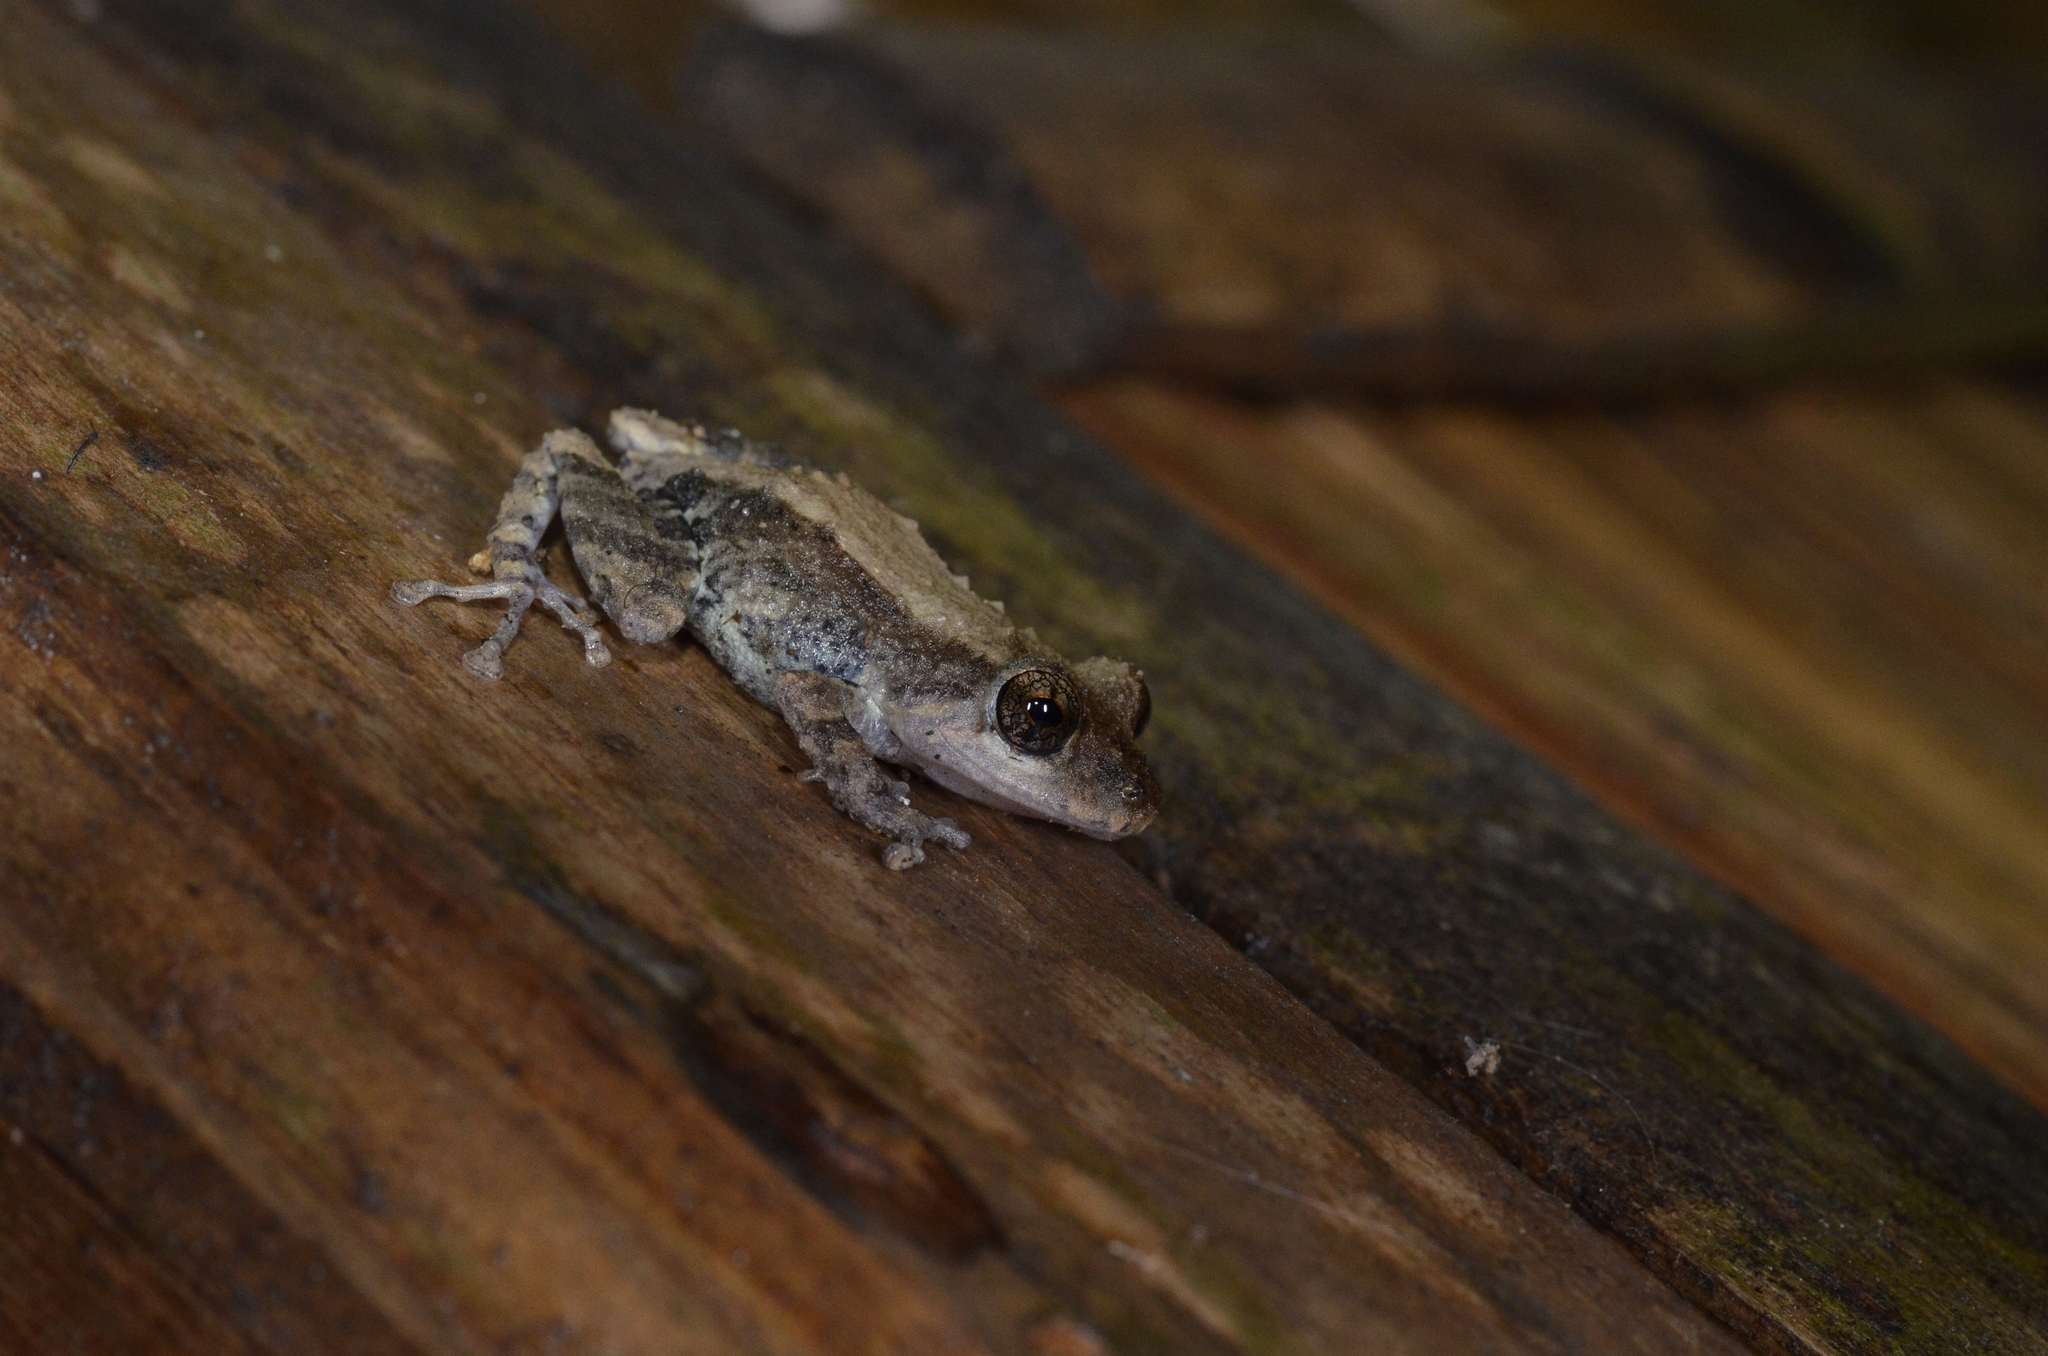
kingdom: Animalia
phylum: Chordata
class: Amphibia
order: Anura
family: Craugastoridae
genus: Pristimantis
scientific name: Pristimantis brevicrus
